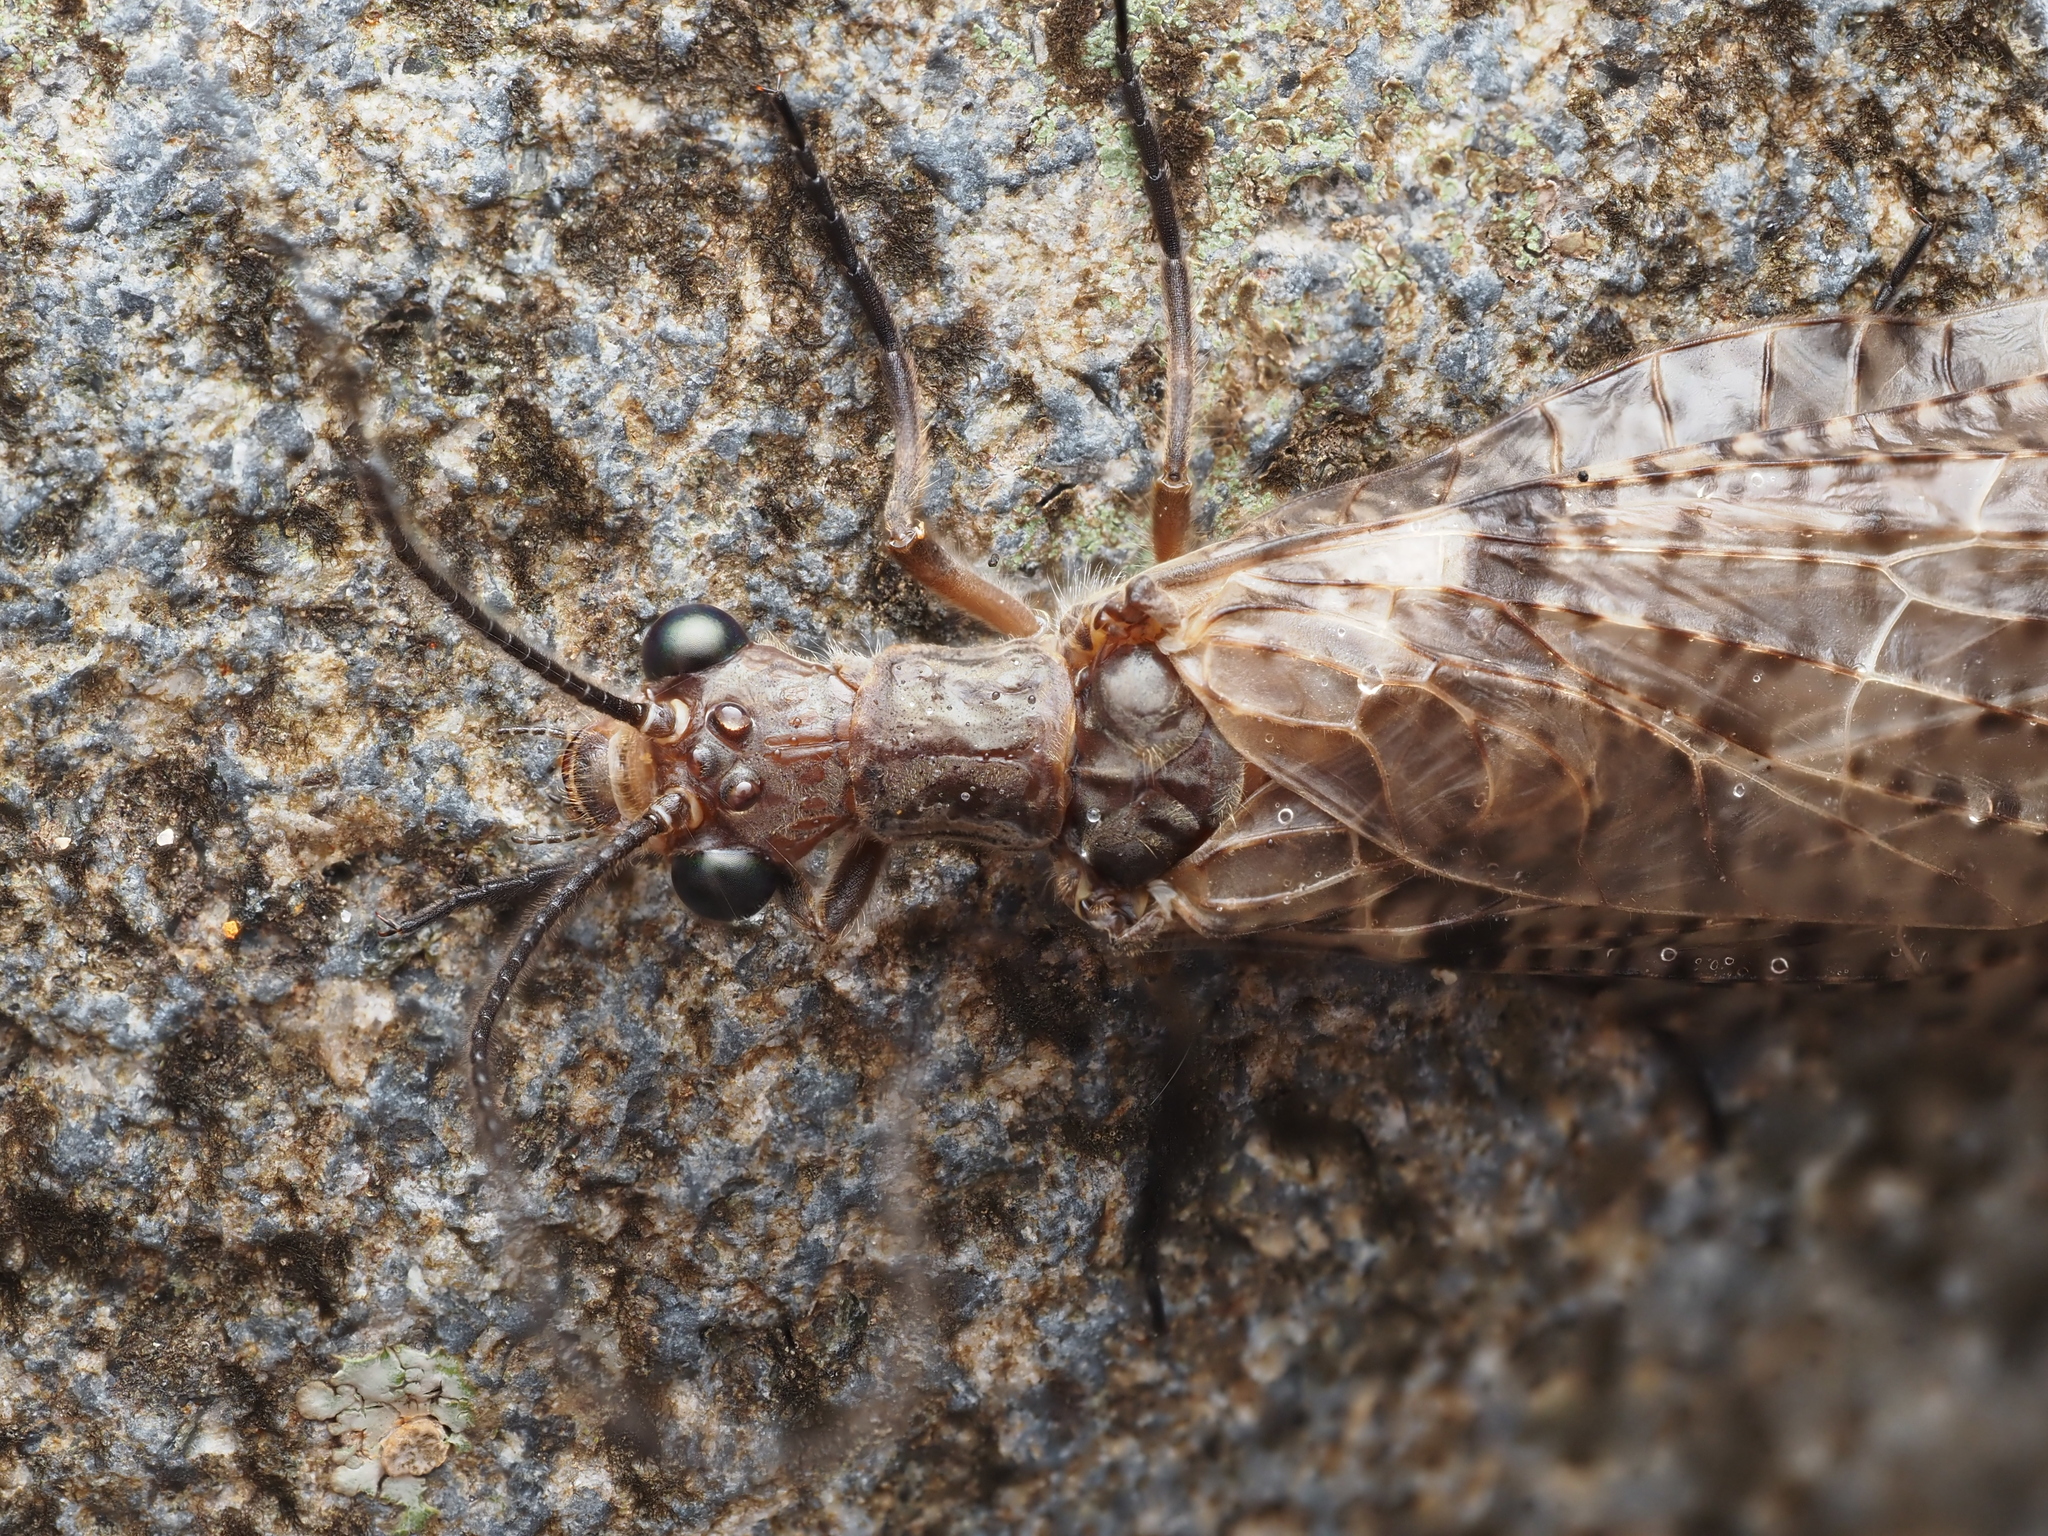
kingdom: Animalia
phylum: Arthropoda
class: Insecta
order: Megaloptera
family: Corydalidae
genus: Archichauliodes
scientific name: Archichauliodes diversus
